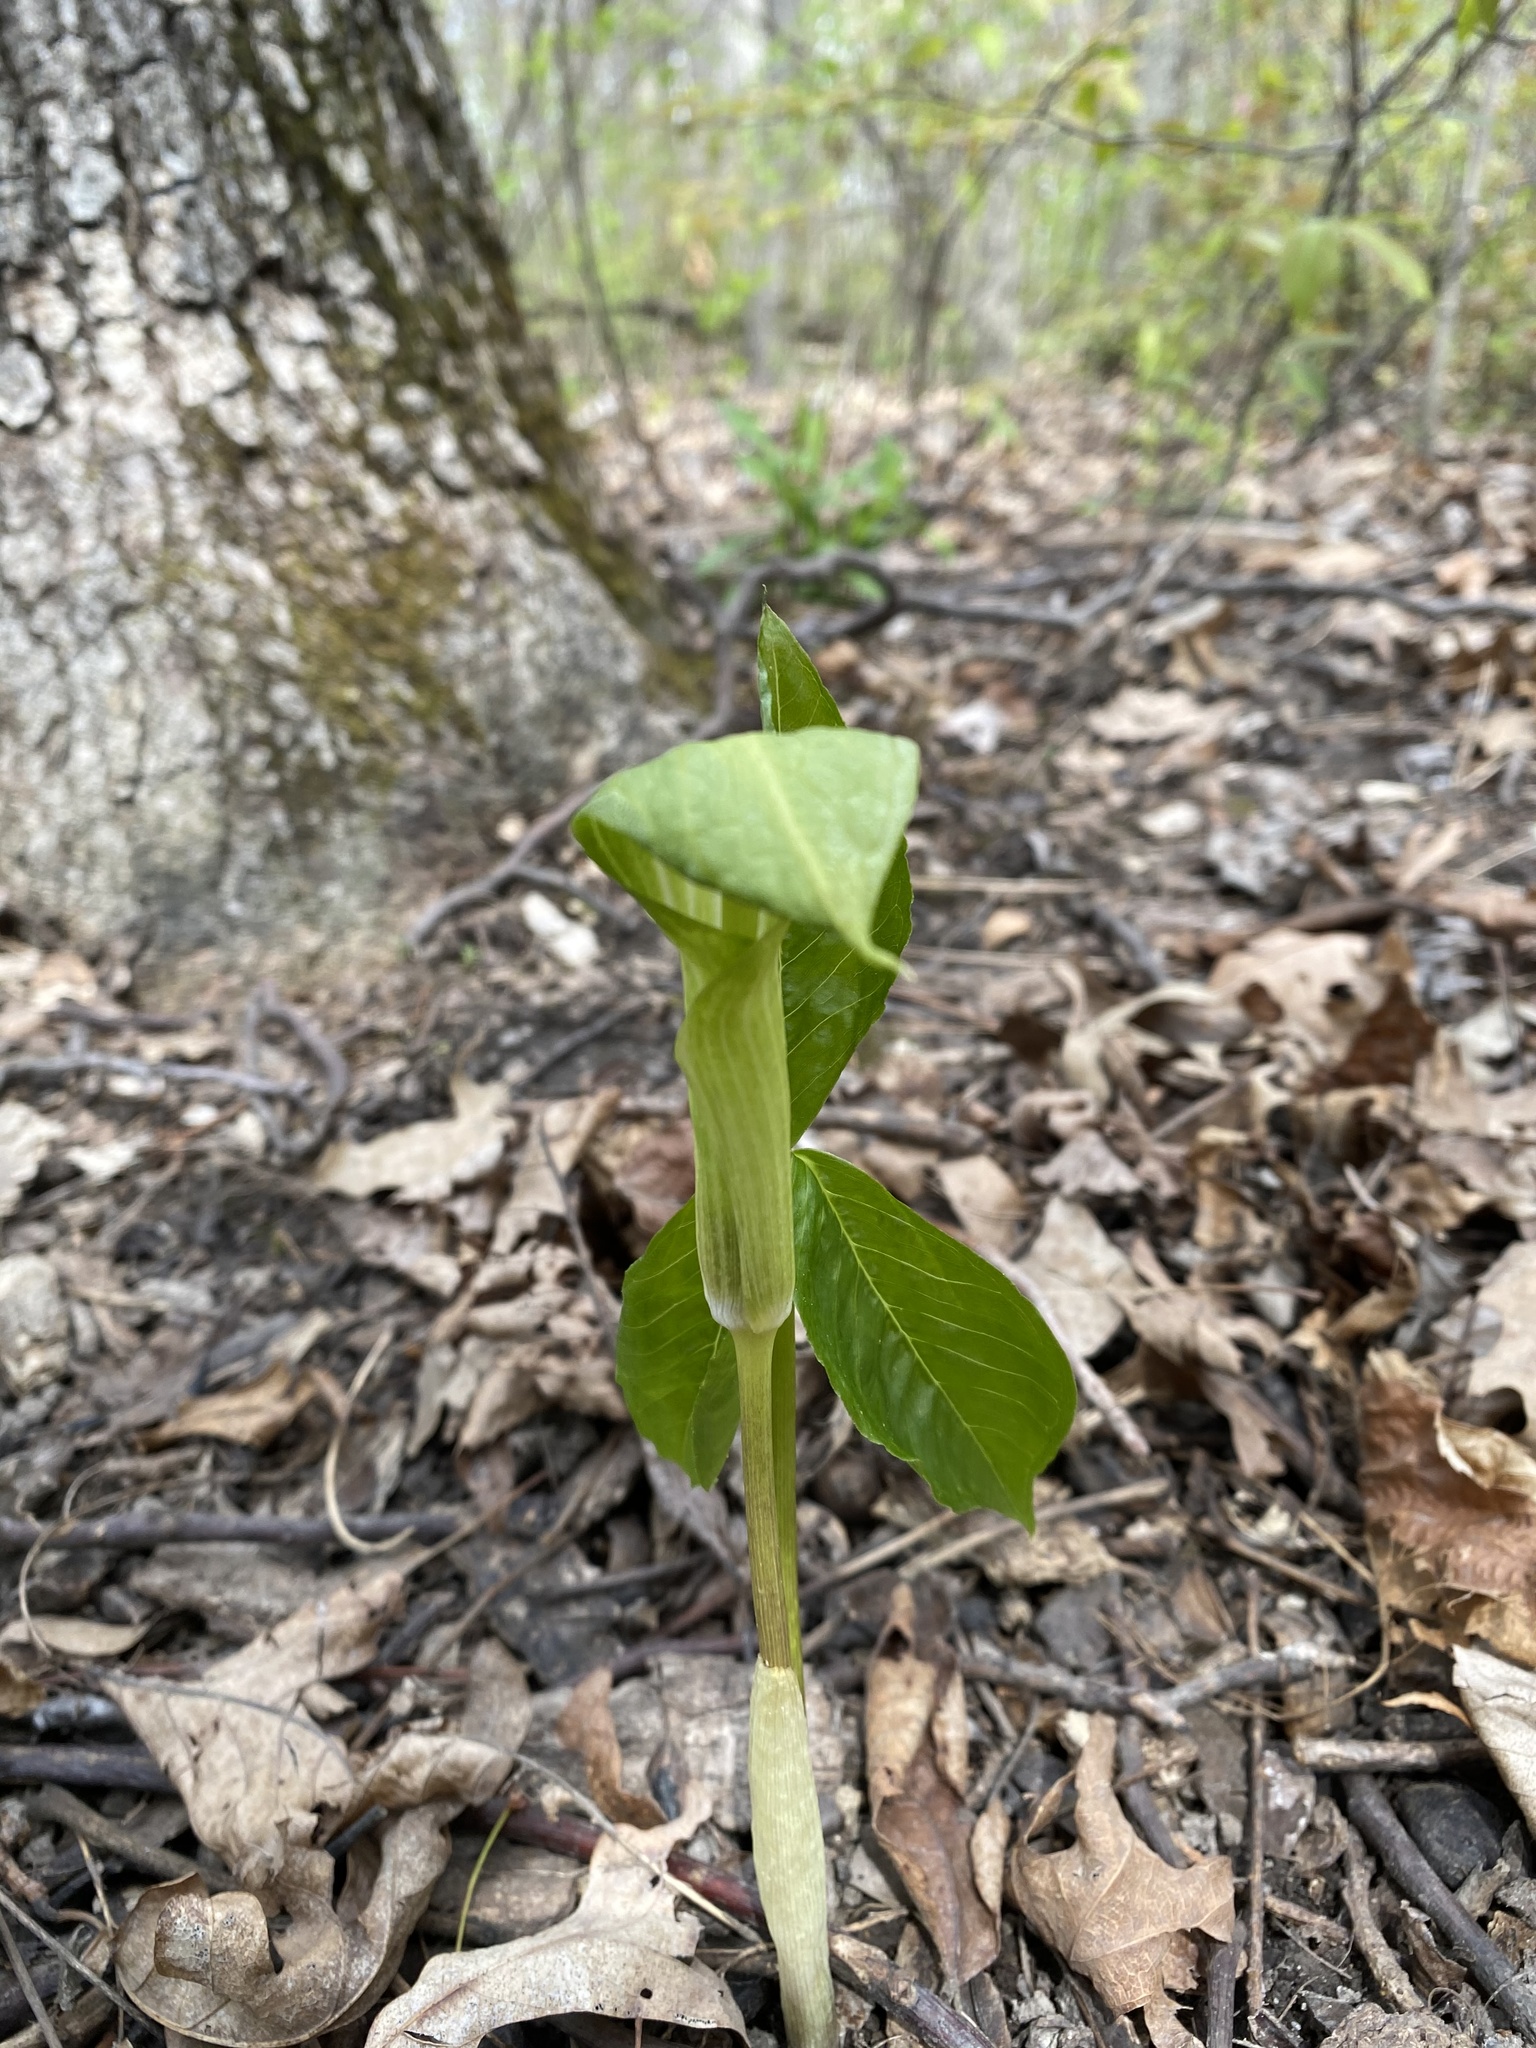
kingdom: Plantae
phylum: Tracheophyta
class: Liliopsida
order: Alismatales
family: Araceae
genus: Arisaema
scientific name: Arisaema triphyllum
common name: Jack-in-the-pulpit
